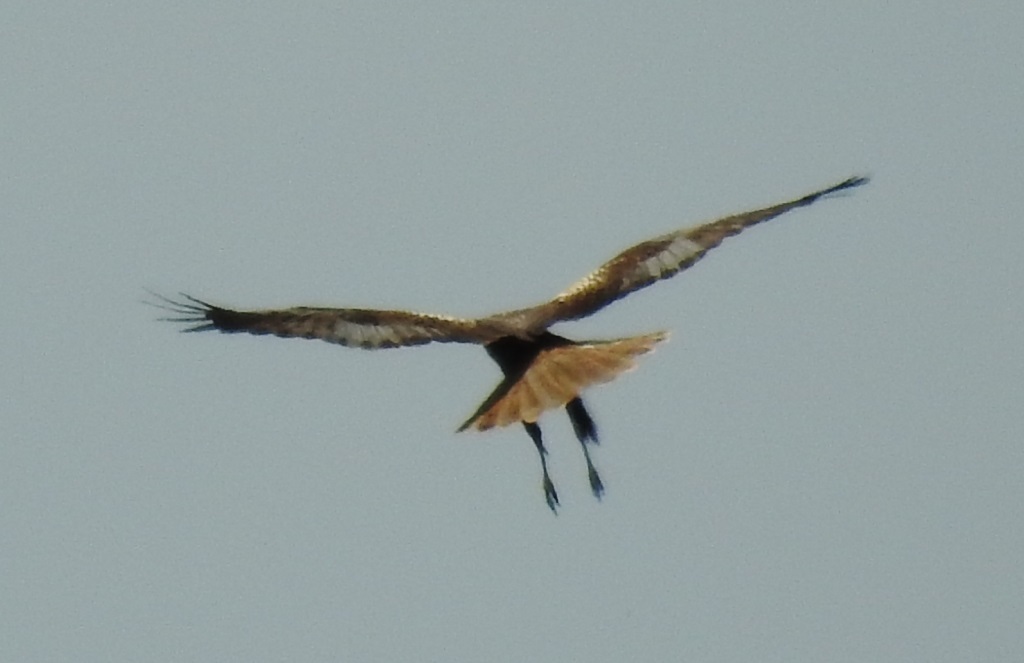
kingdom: Animalia
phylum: Chordata
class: Aves
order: Accipitriformes
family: Accipitridae
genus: Circus
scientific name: Circus aeruginosus
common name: Western marsh harrier
